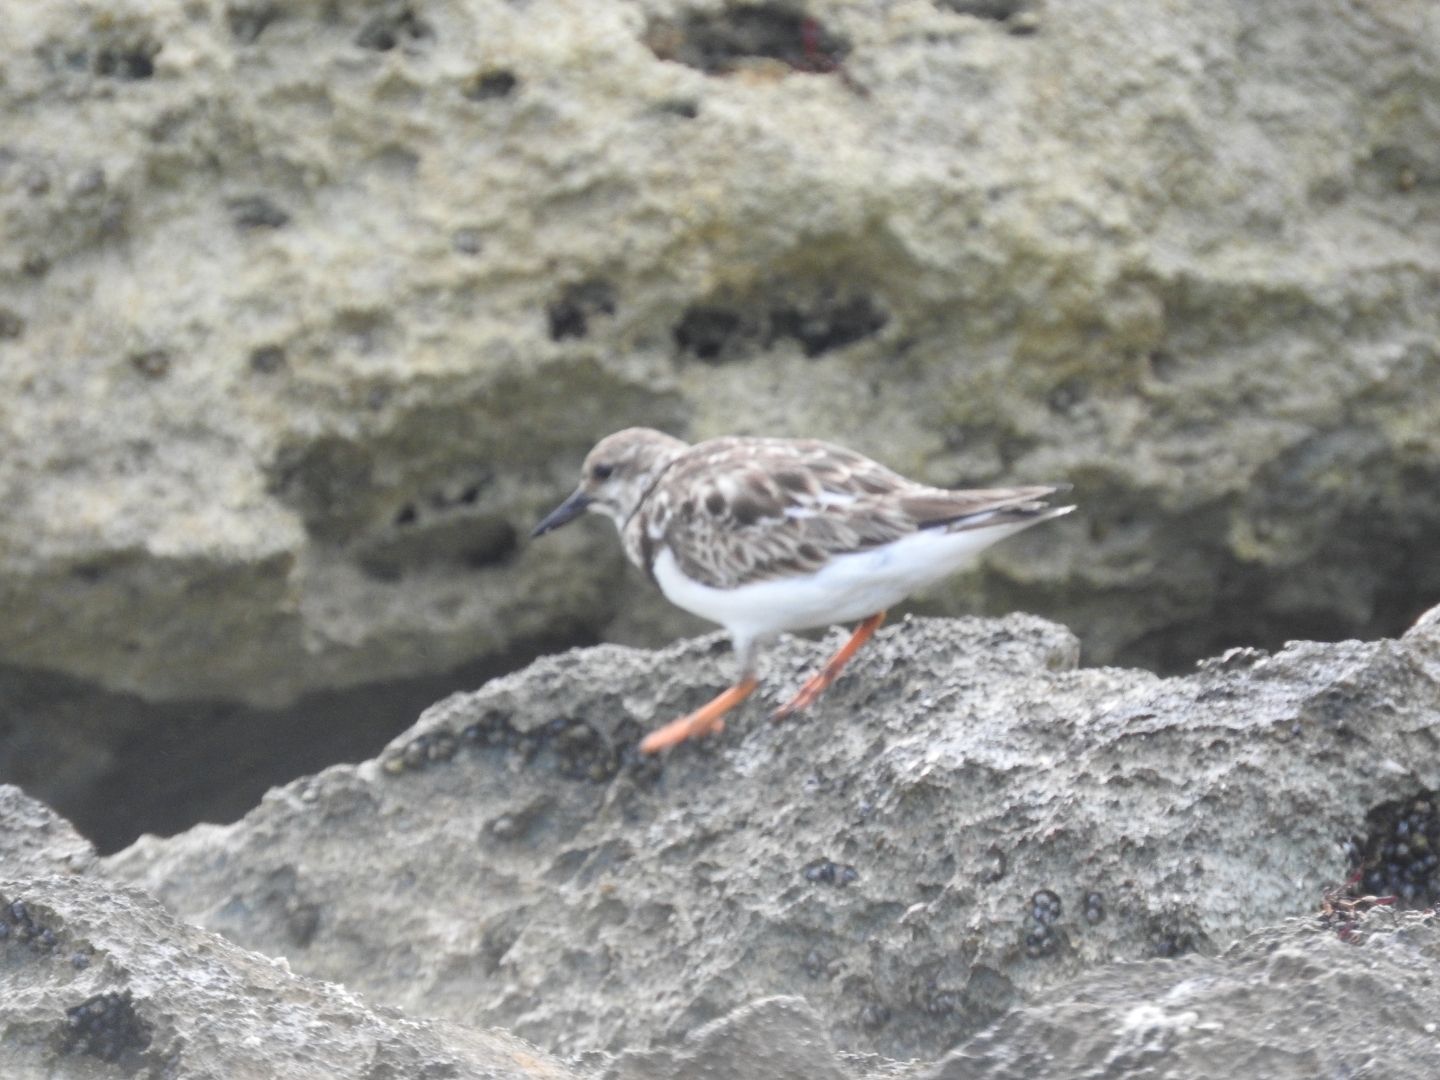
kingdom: Animalia
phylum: Chordata
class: Aves
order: Charadriiformes
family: Scolopacidae
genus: Arenaria
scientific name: Arenaria interpres
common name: Ruddy turnstone
